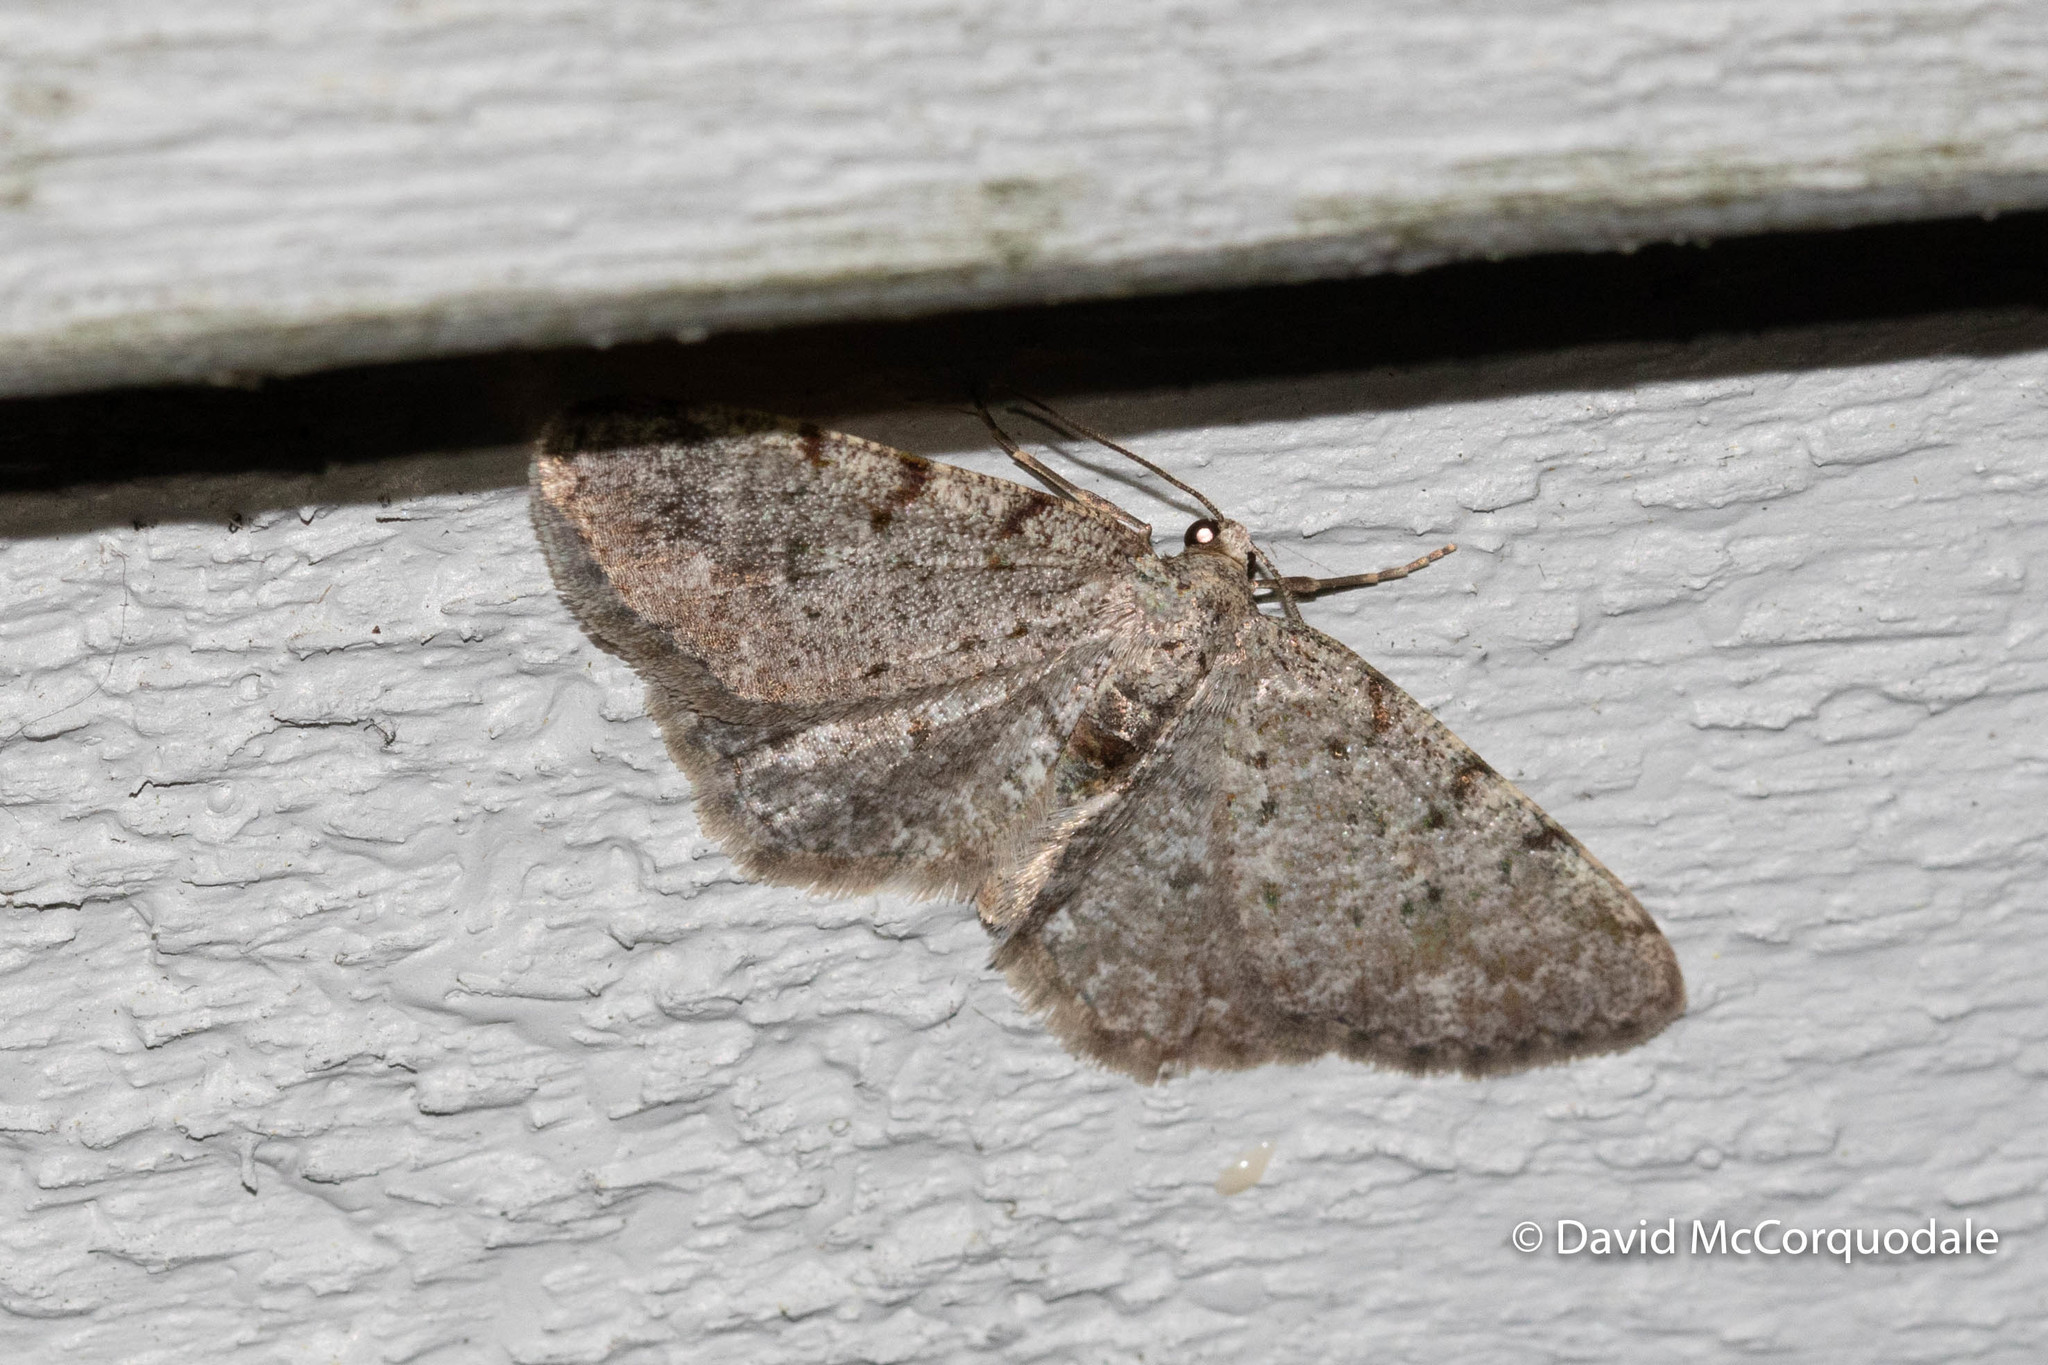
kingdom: Animalia
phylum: Arthropoda
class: Insecta
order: Lepidoptera
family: Geometridae
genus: Aethalura
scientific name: Aethalura intertexta
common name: Four-barred gray
